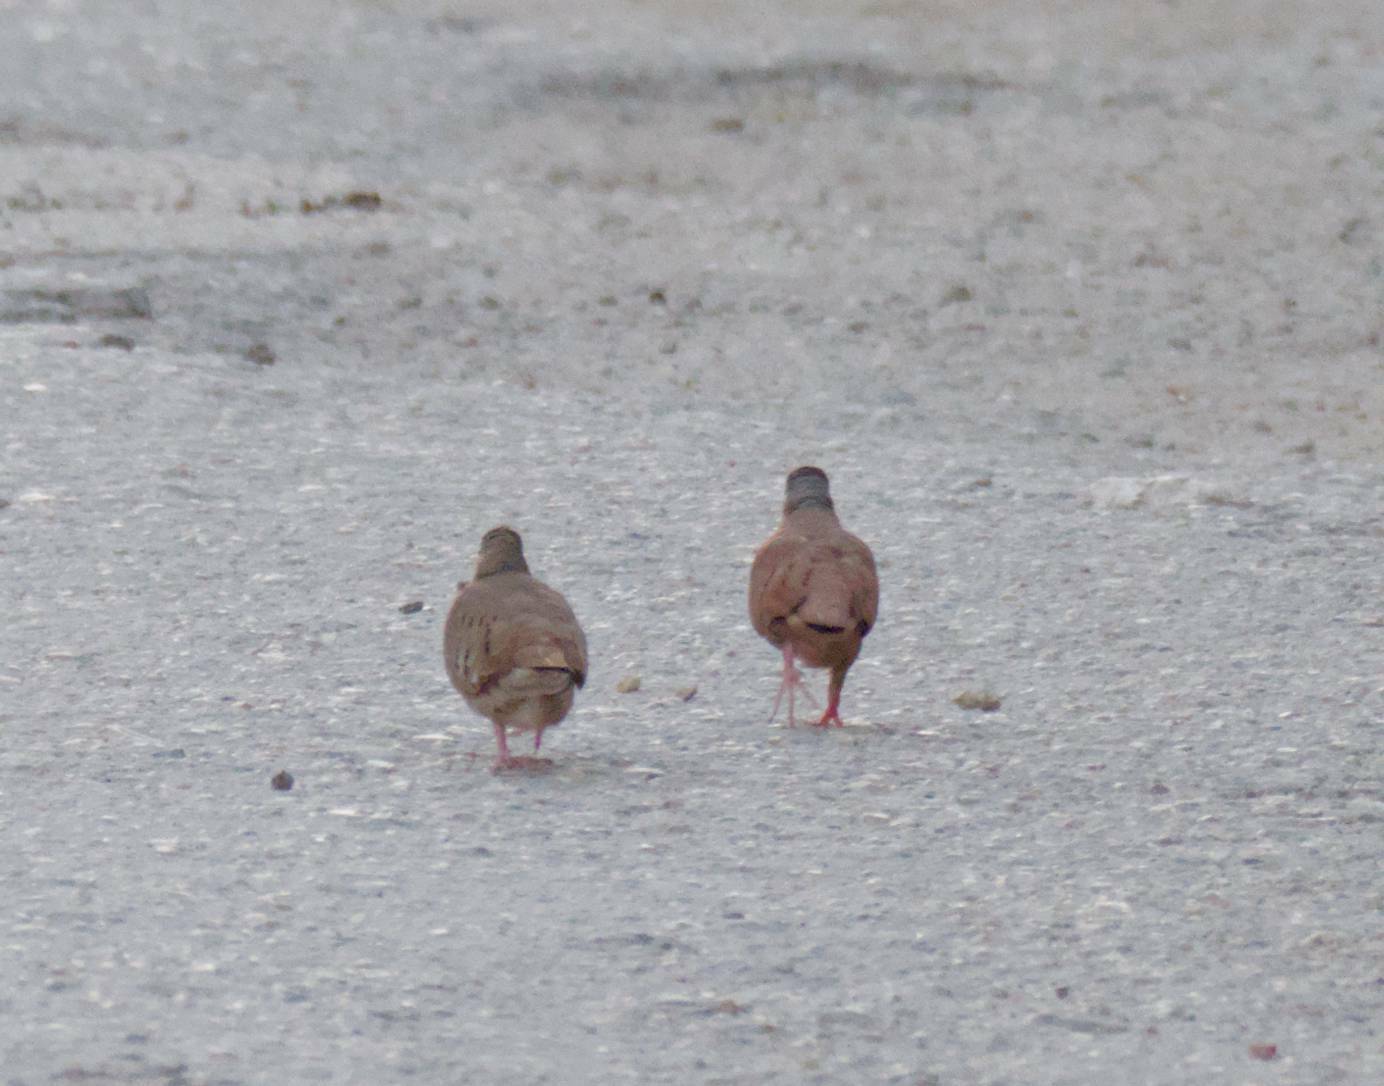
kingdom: Animalia
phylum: Chordata
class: Aves
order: Columbiformes
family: Columbidae
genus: Columbina
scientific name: Columbina talpacoti
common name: Ruddy ground dove
